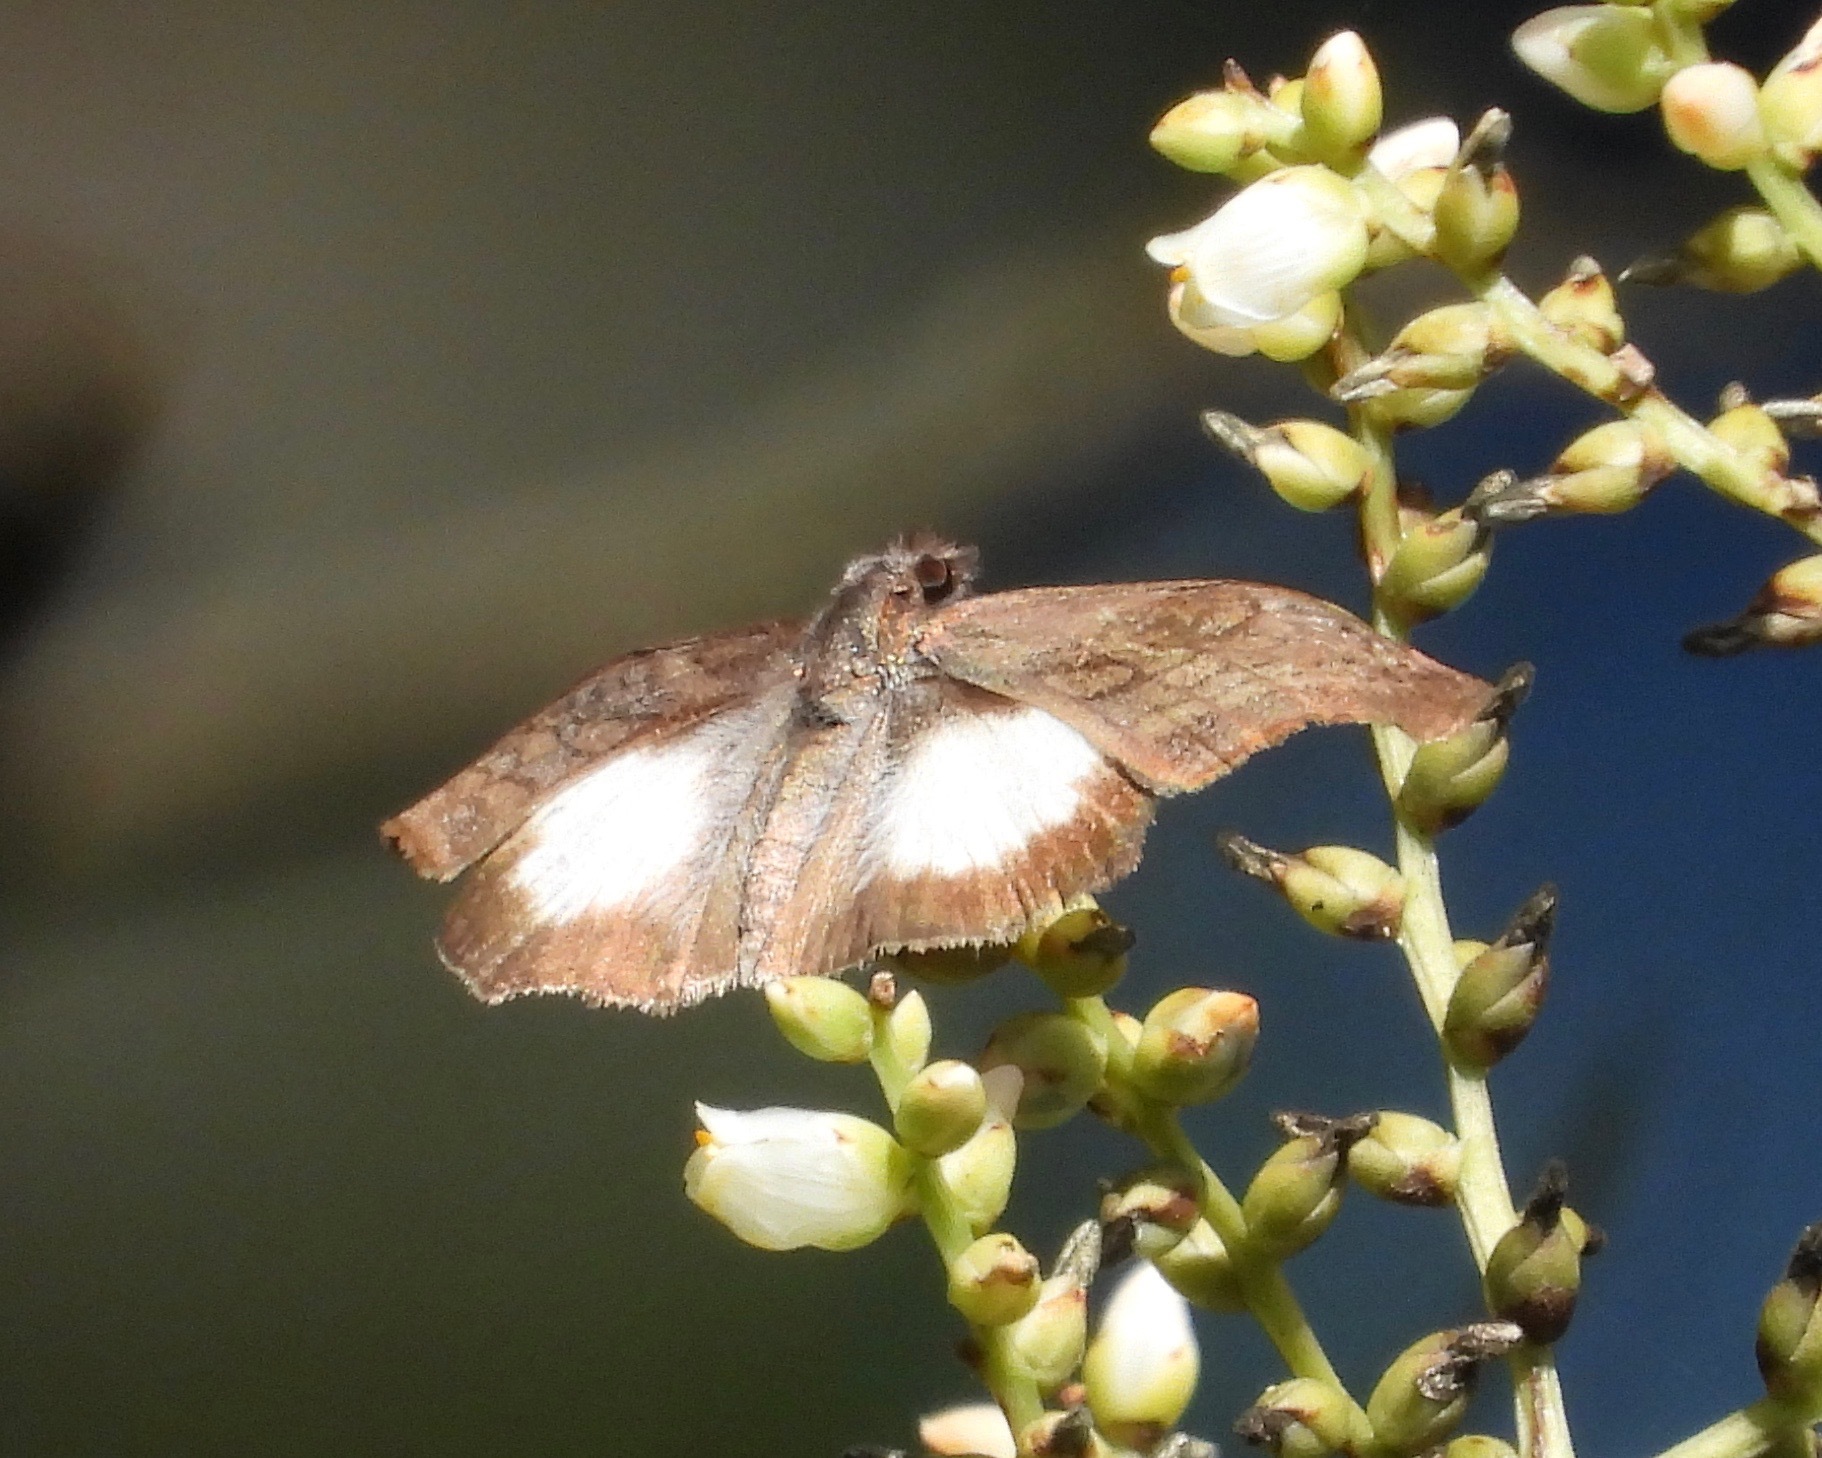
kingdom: Animalia
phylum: Arthropoda
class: Insecta
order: Lepidoptera
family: Hesperiidae
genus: Theagenes
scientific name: Theagenes
